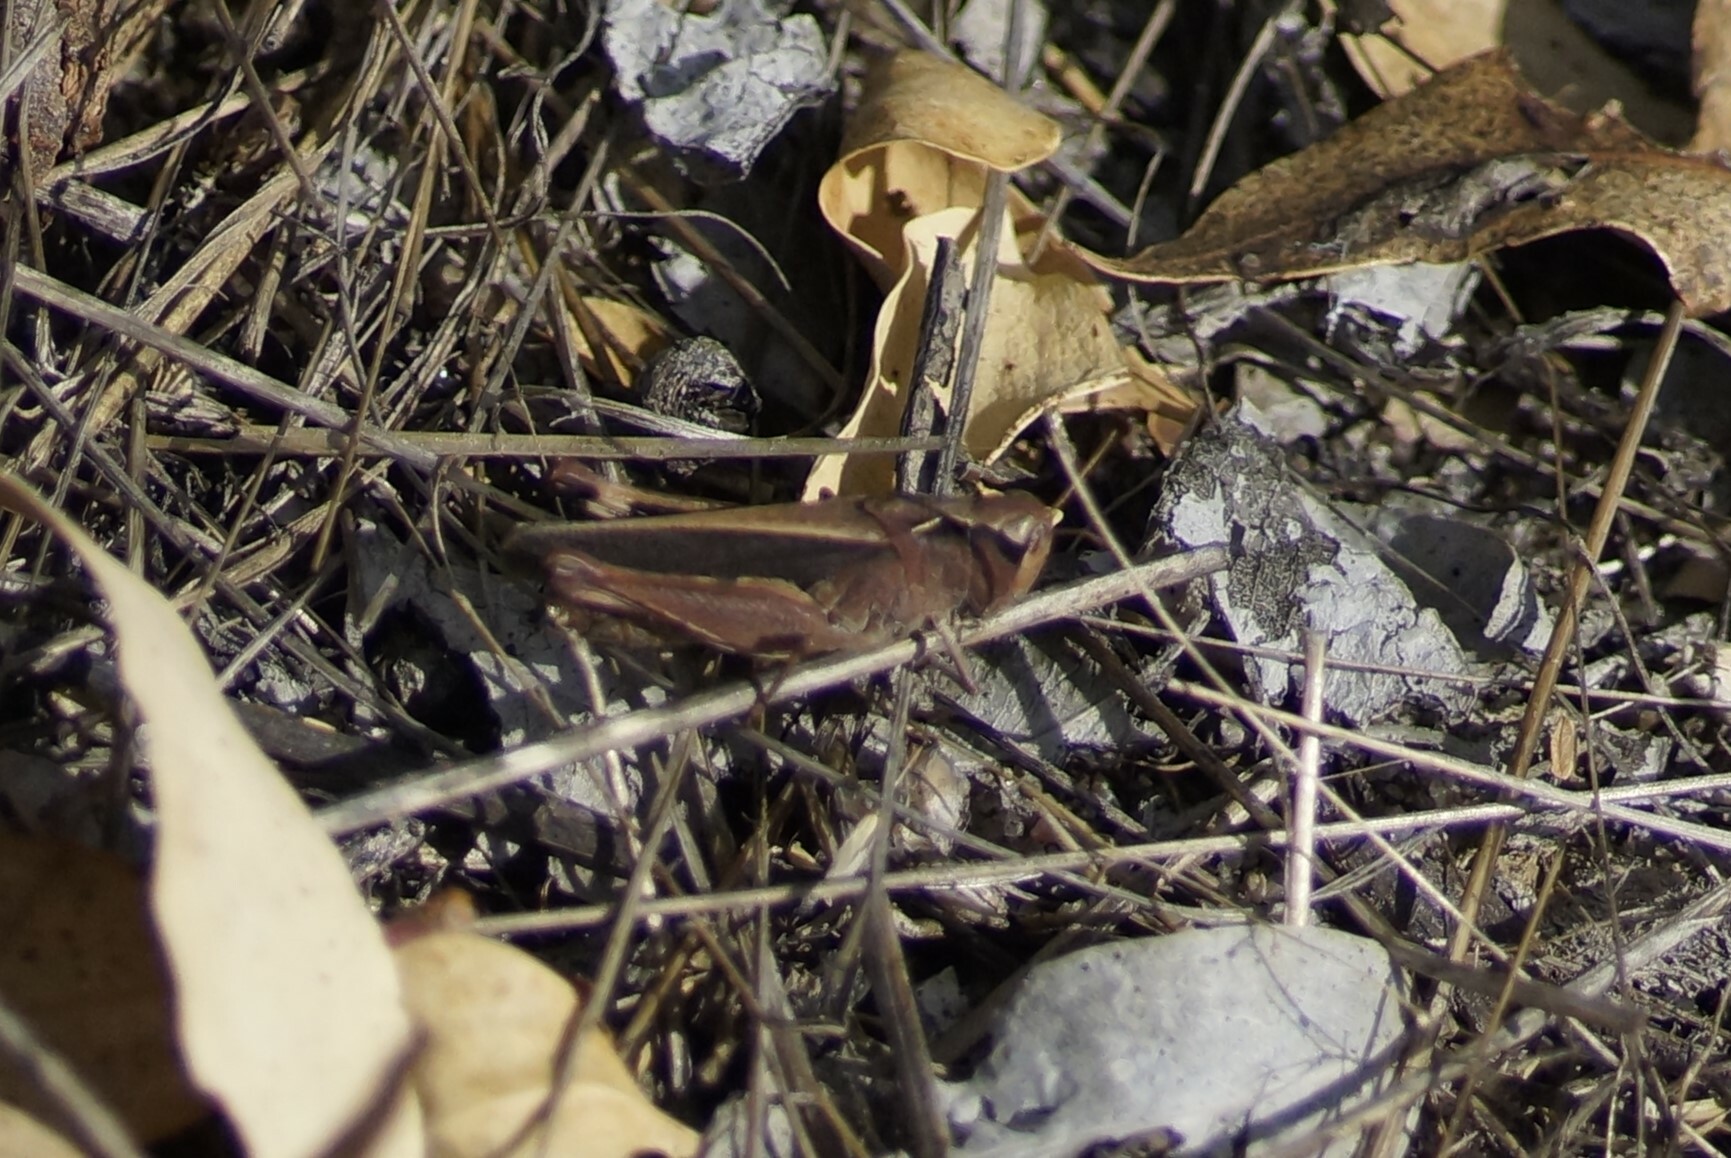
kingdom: Animalia
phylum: Arthropoda
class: Insecta
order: Orthoptera
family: Acrididae
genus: Cryptobothrus
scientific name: Cryptobothrus chrysophorus
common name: Golden bandwing
